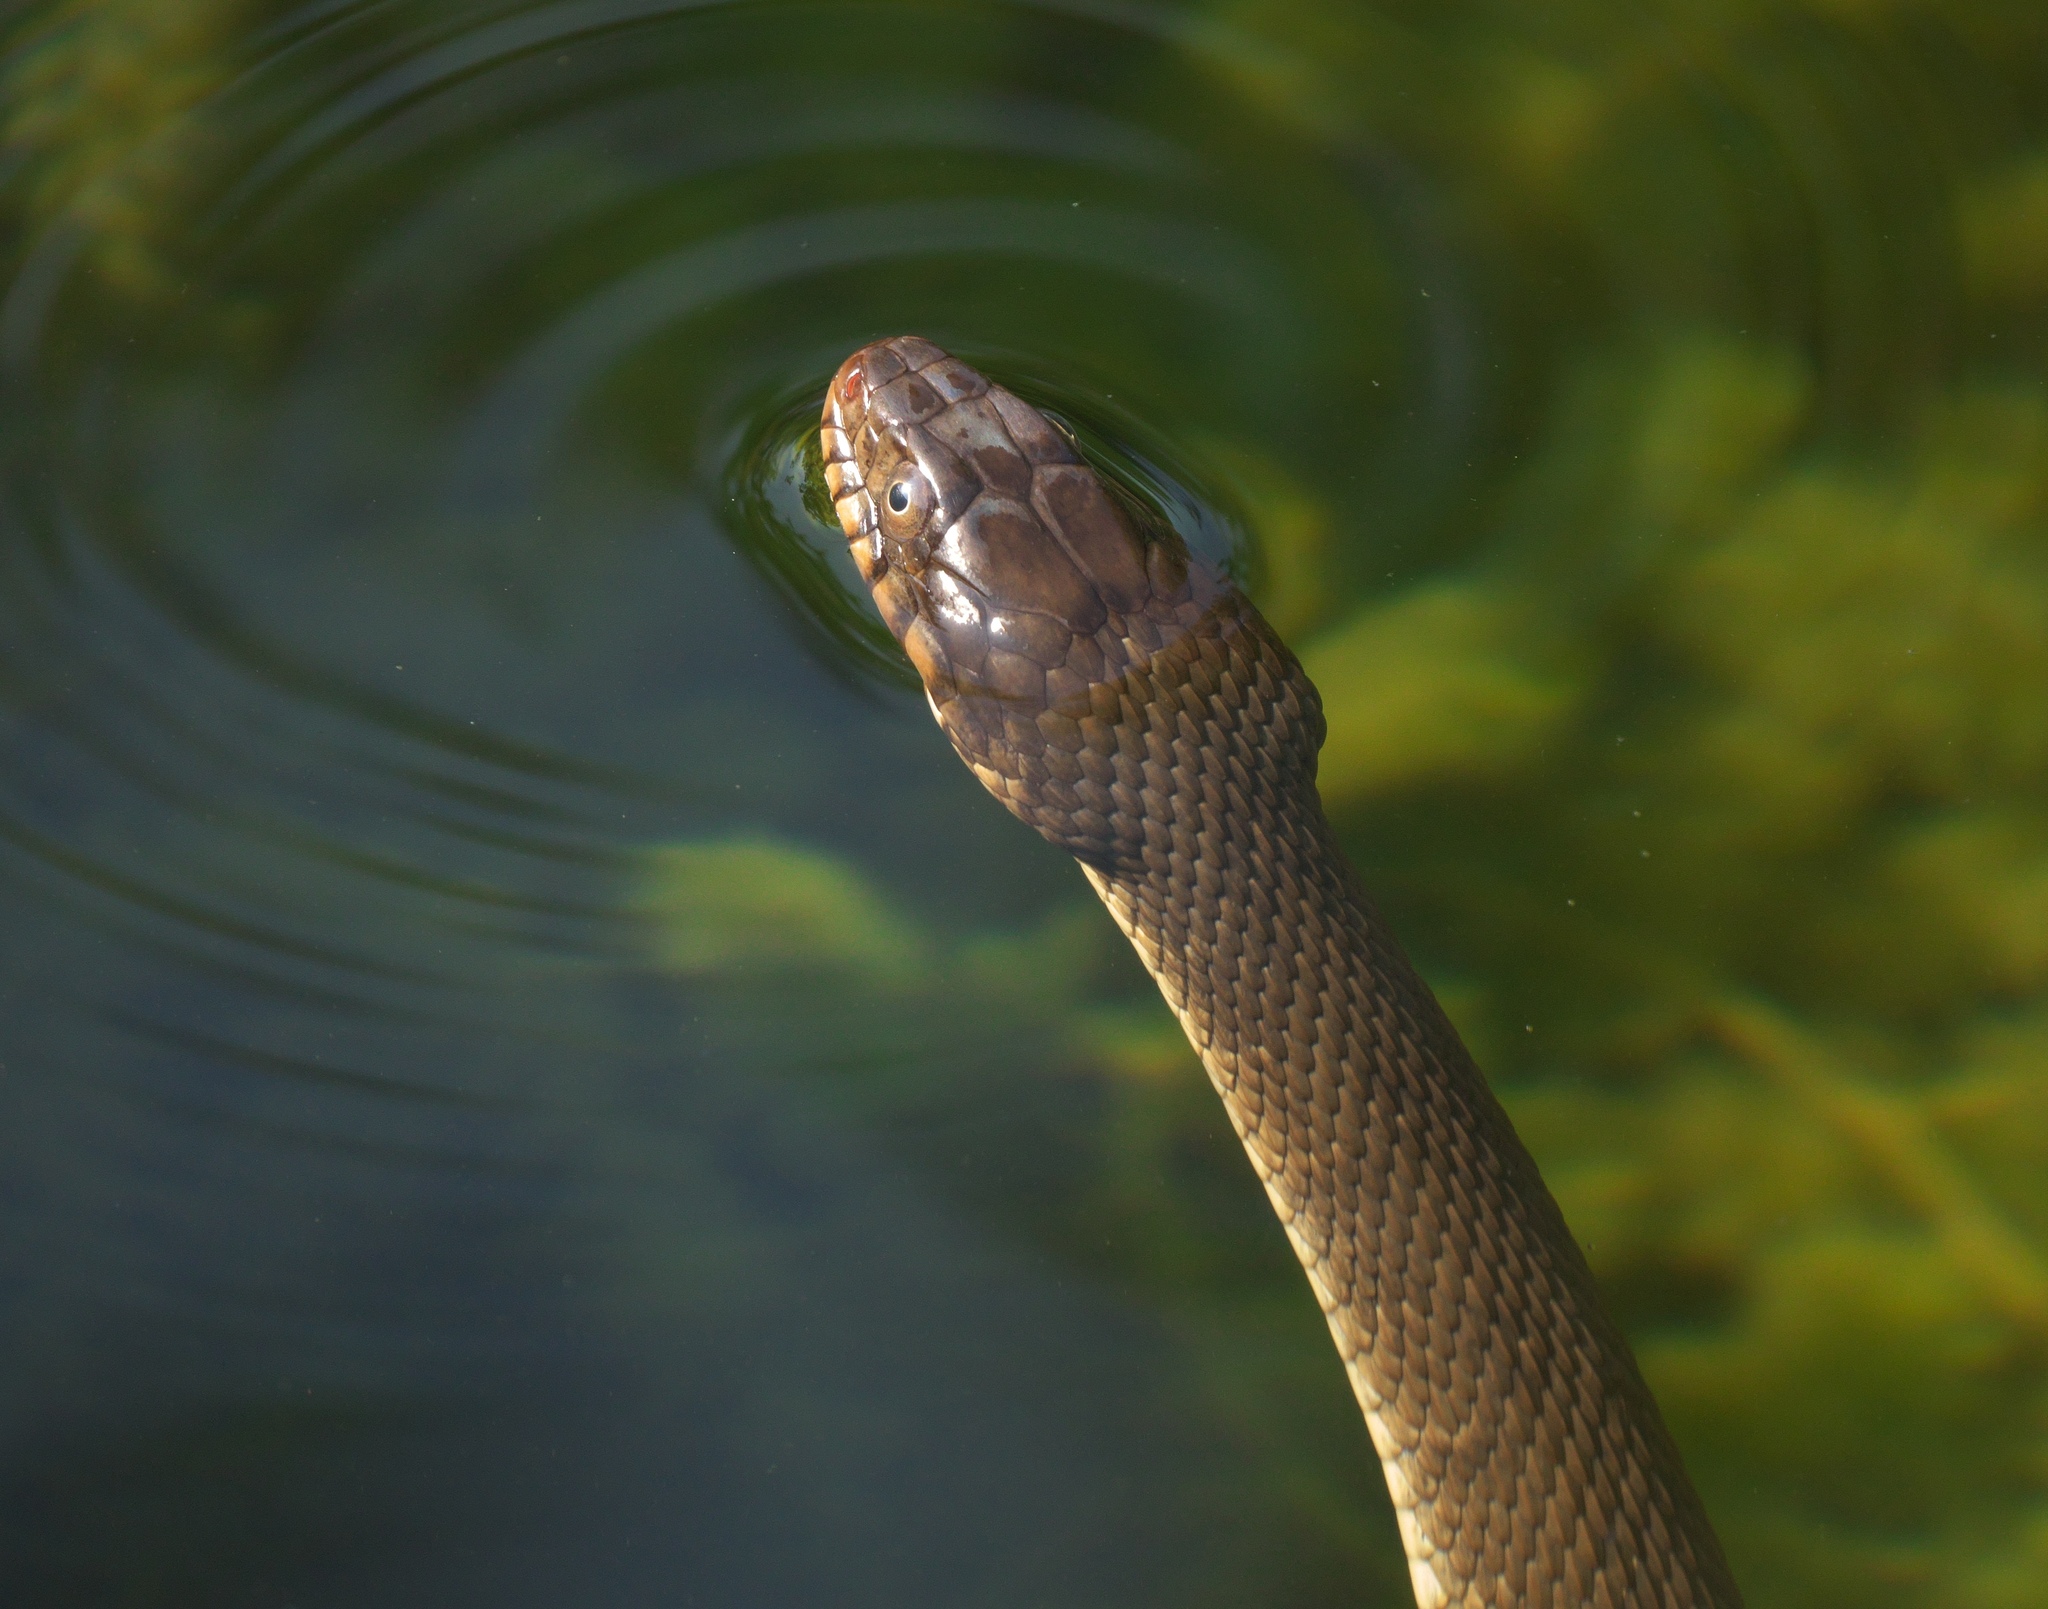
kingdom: Animalia
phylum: Chordata
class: Squamata
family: Colubridae
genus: Nerodia
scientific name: Nerodia erythrogaster
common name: Plainbelly water snake
